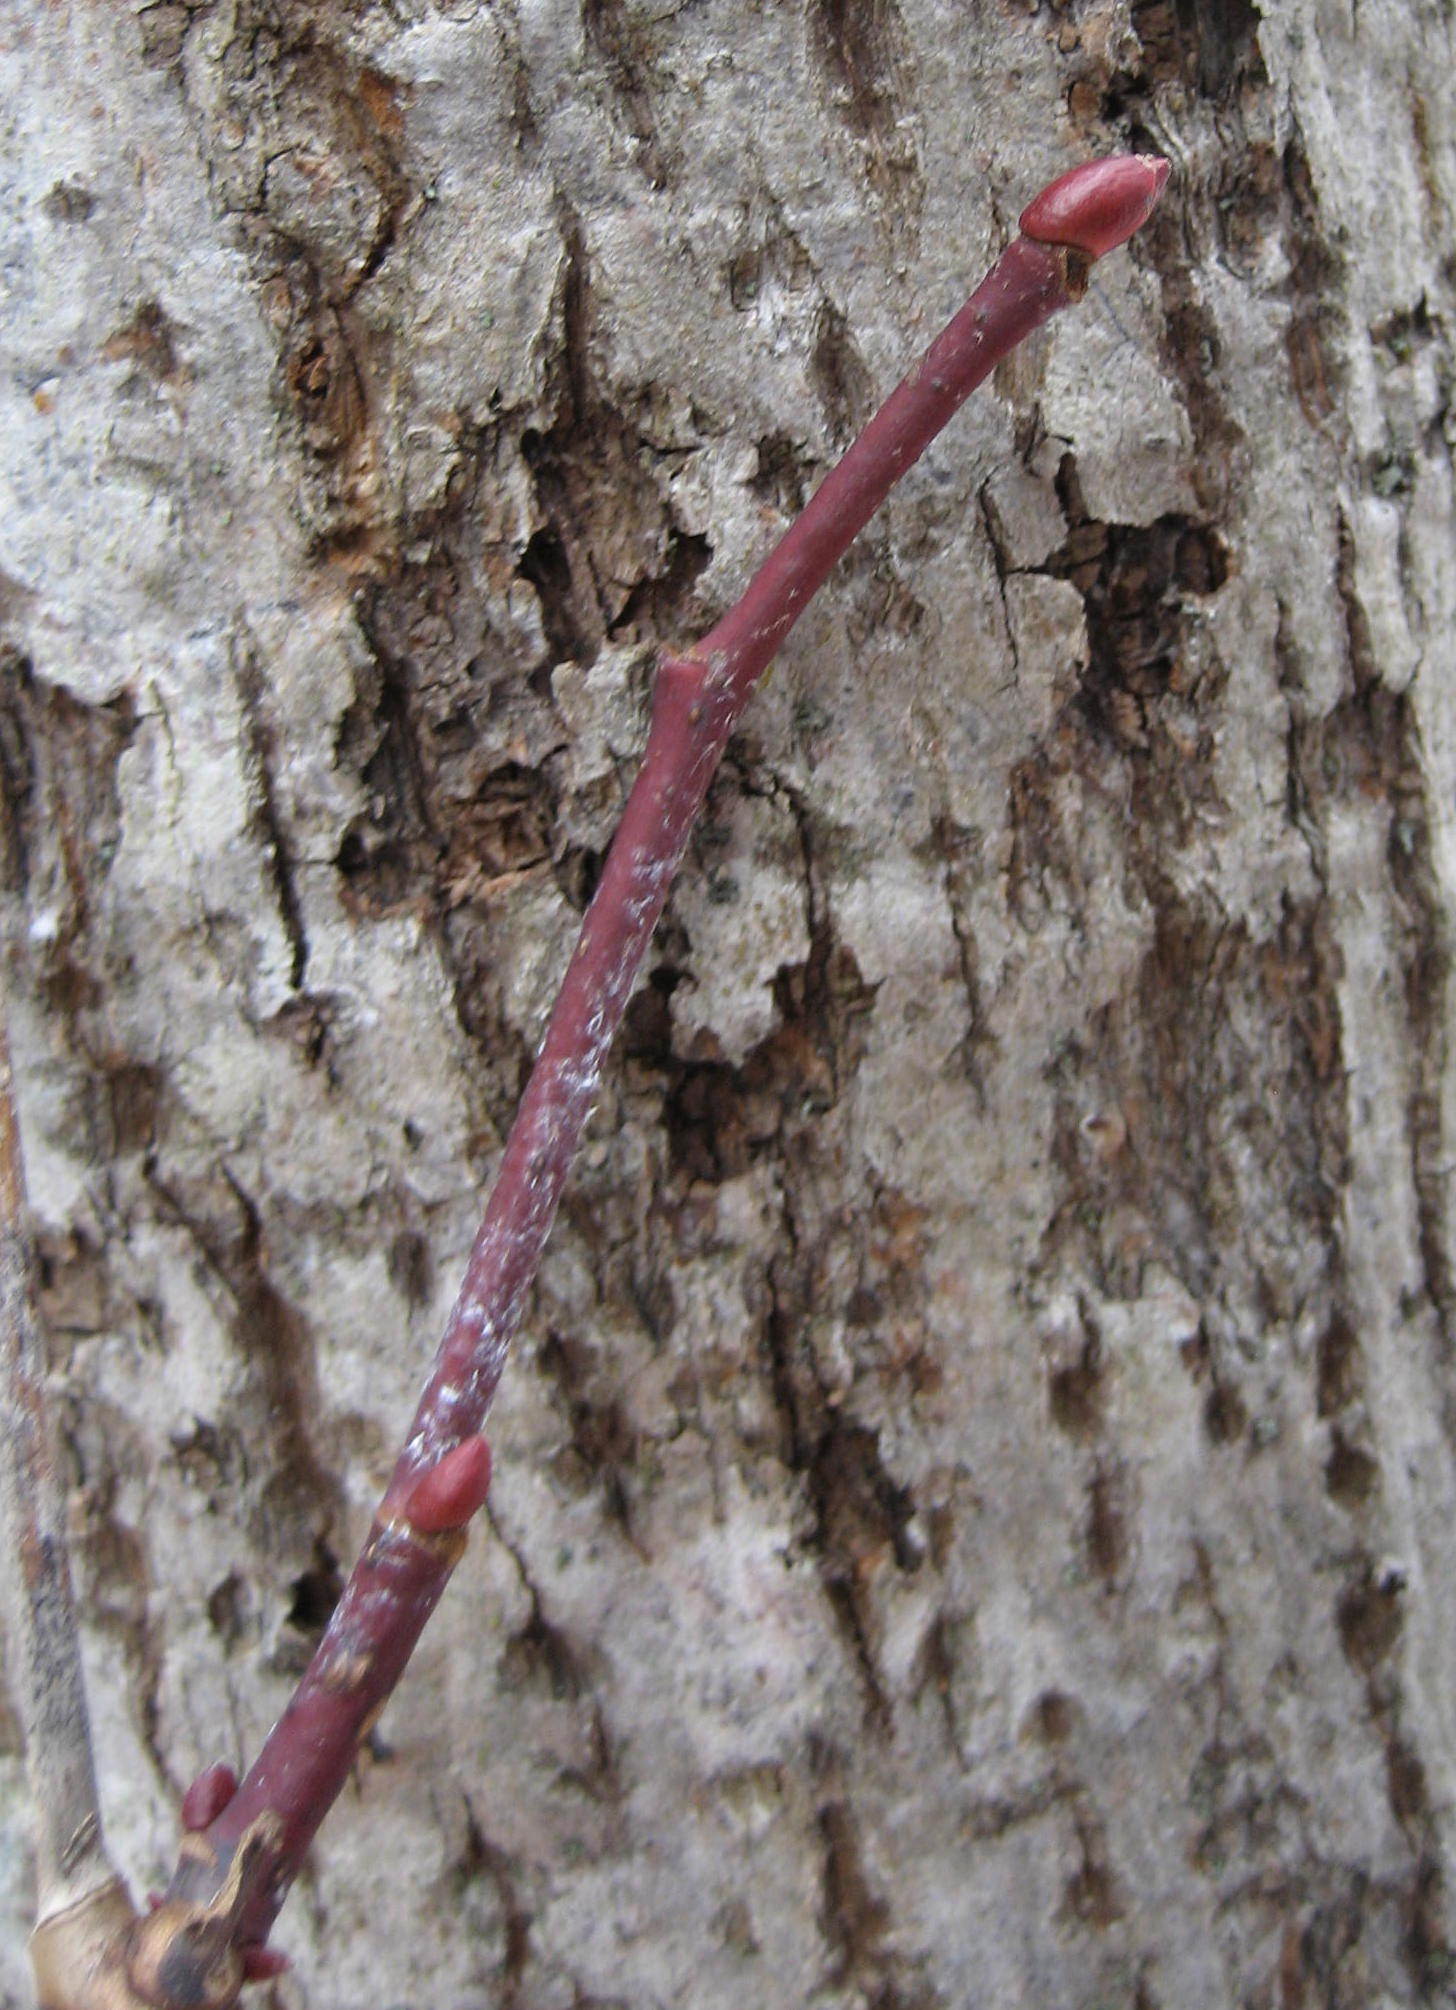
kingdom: Plantae
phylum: Tracheophyta
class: Magnoliopsida
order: Malvales
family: Malvaceae
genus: Tilia
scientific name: Tilia americana
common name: Basswood
